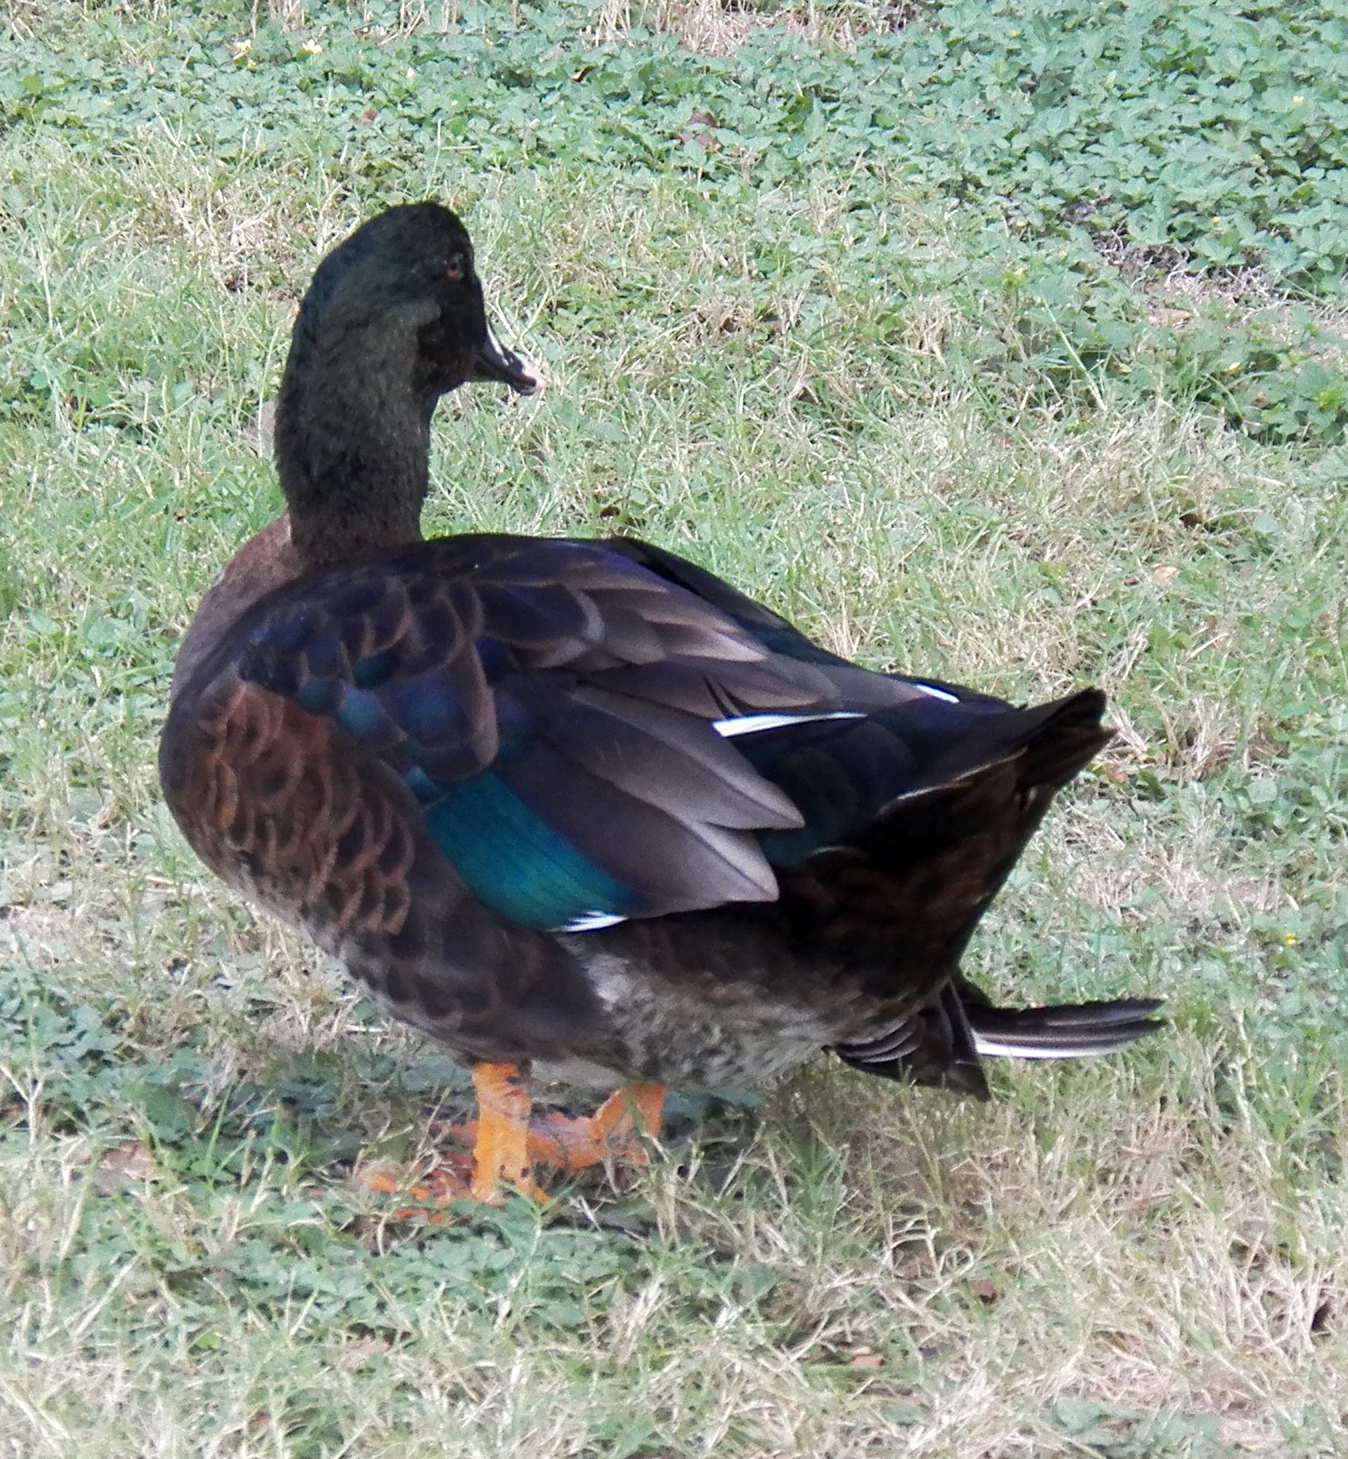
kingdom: Animalia
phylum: Chordata
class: Aves
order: Anseriformes
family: Anatidae
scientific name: Anatidae
